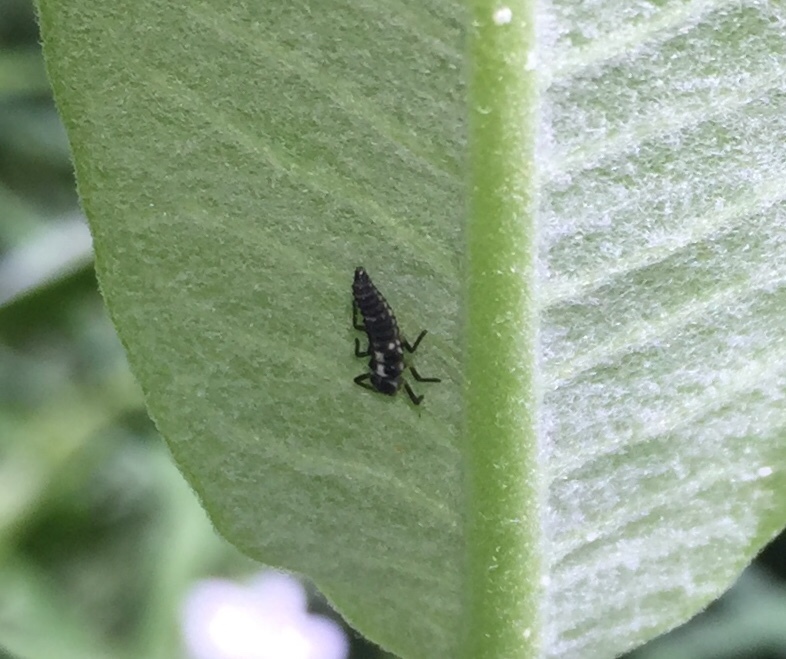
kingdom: Animalia
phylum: Arthropoda
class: Insecta
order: Coleoptera
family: Coccinellidae
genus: Propylaea
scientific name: Propylaea quatuordecimpunctata
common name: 14-spotted ladybird beetle
